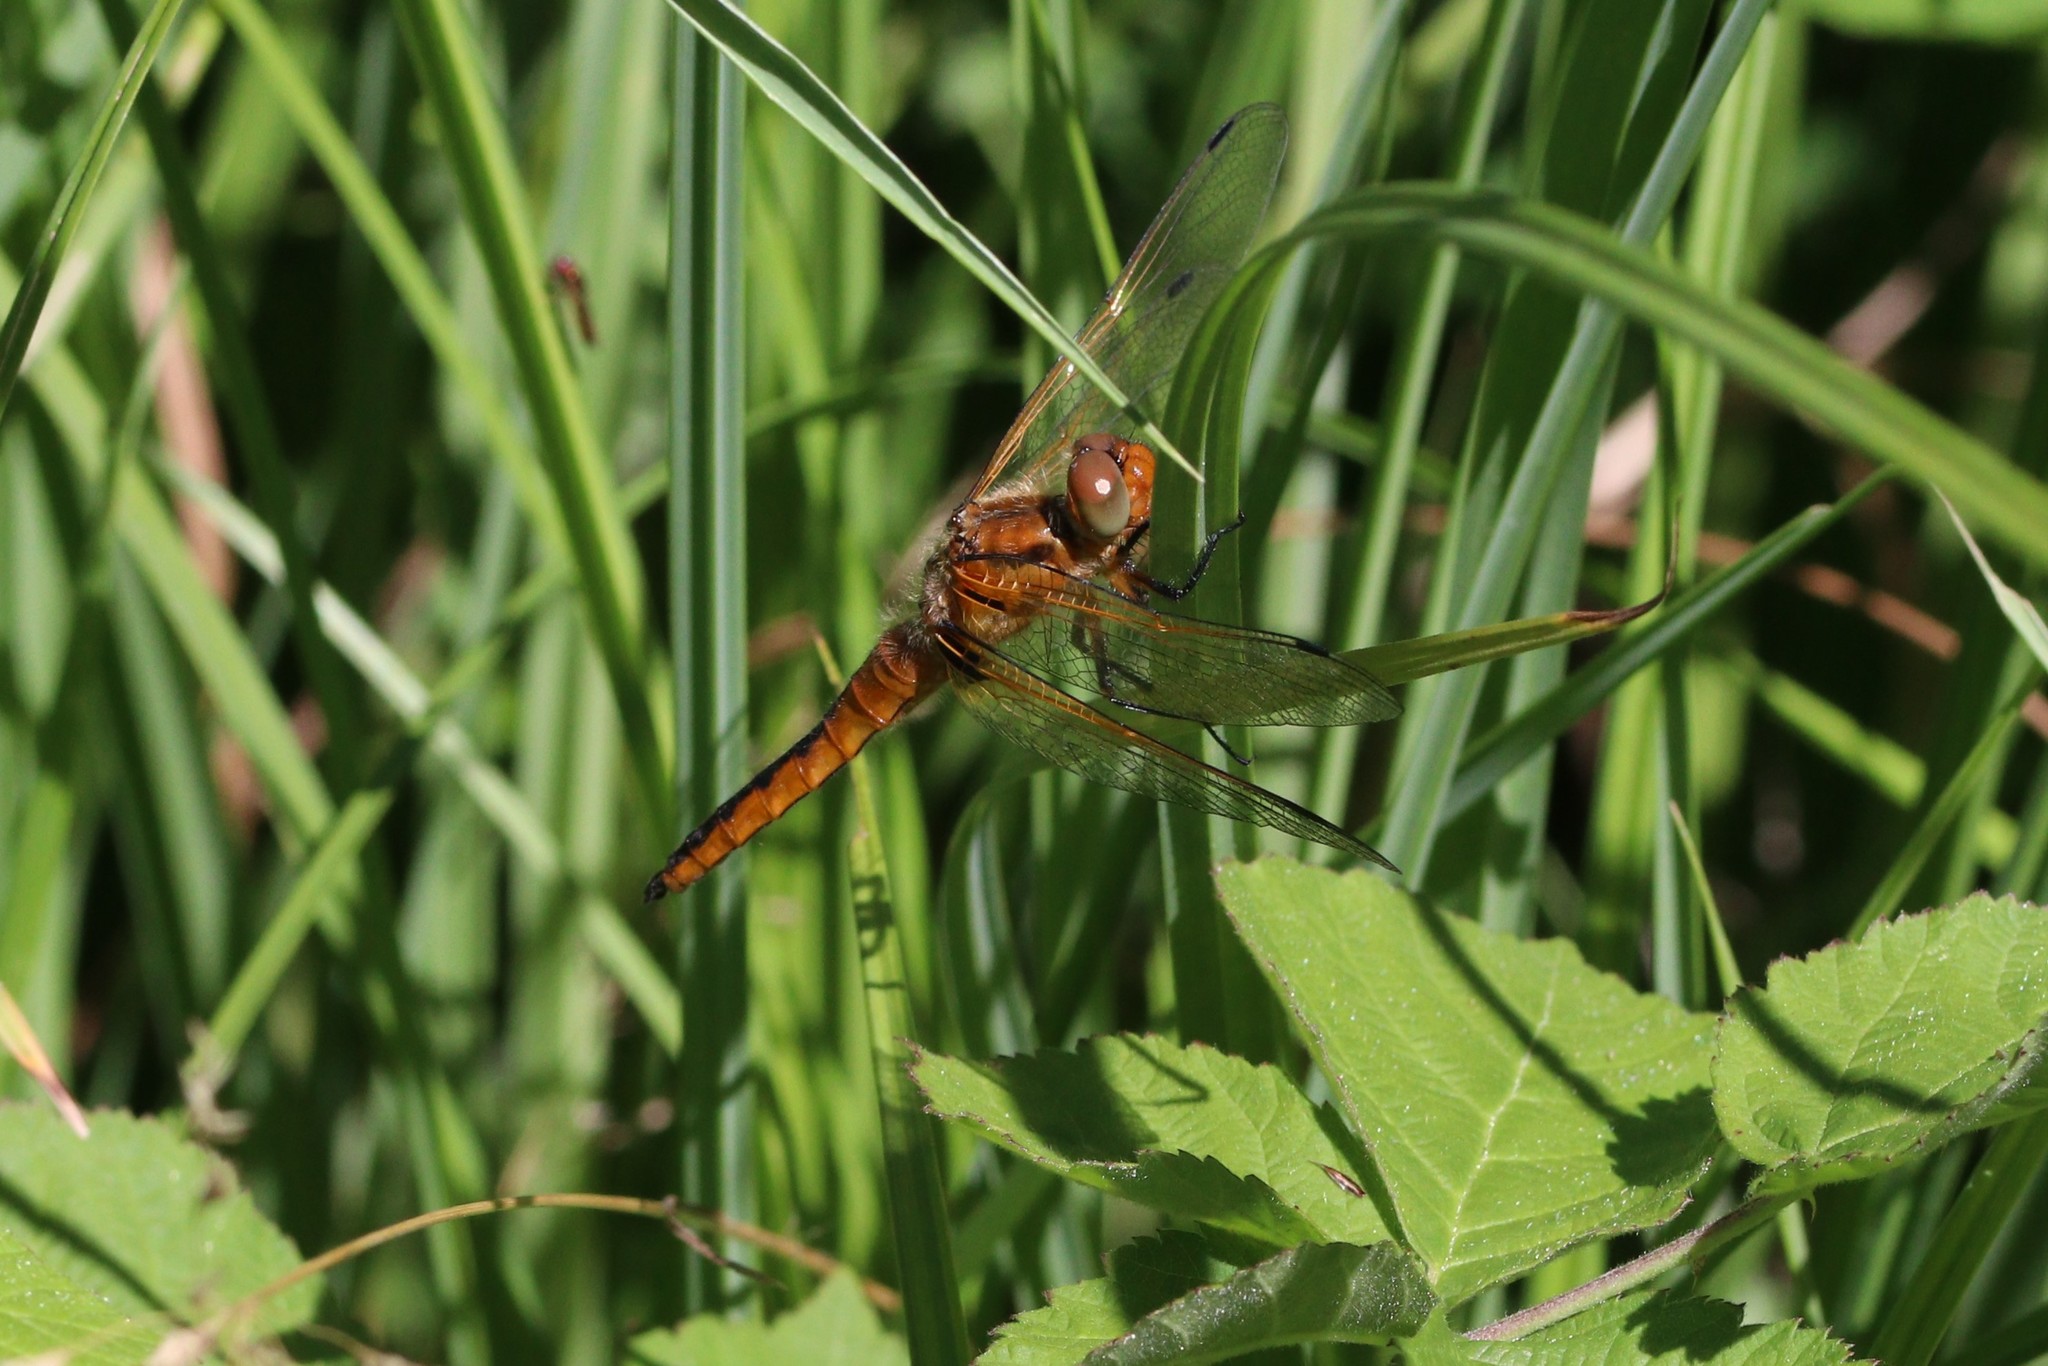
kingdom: Animalia
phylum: Arthropoda
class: Insecta
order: Odonata
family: Libellulidae
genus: Libellula
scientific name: Libellula fulva
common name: Blue chaser
